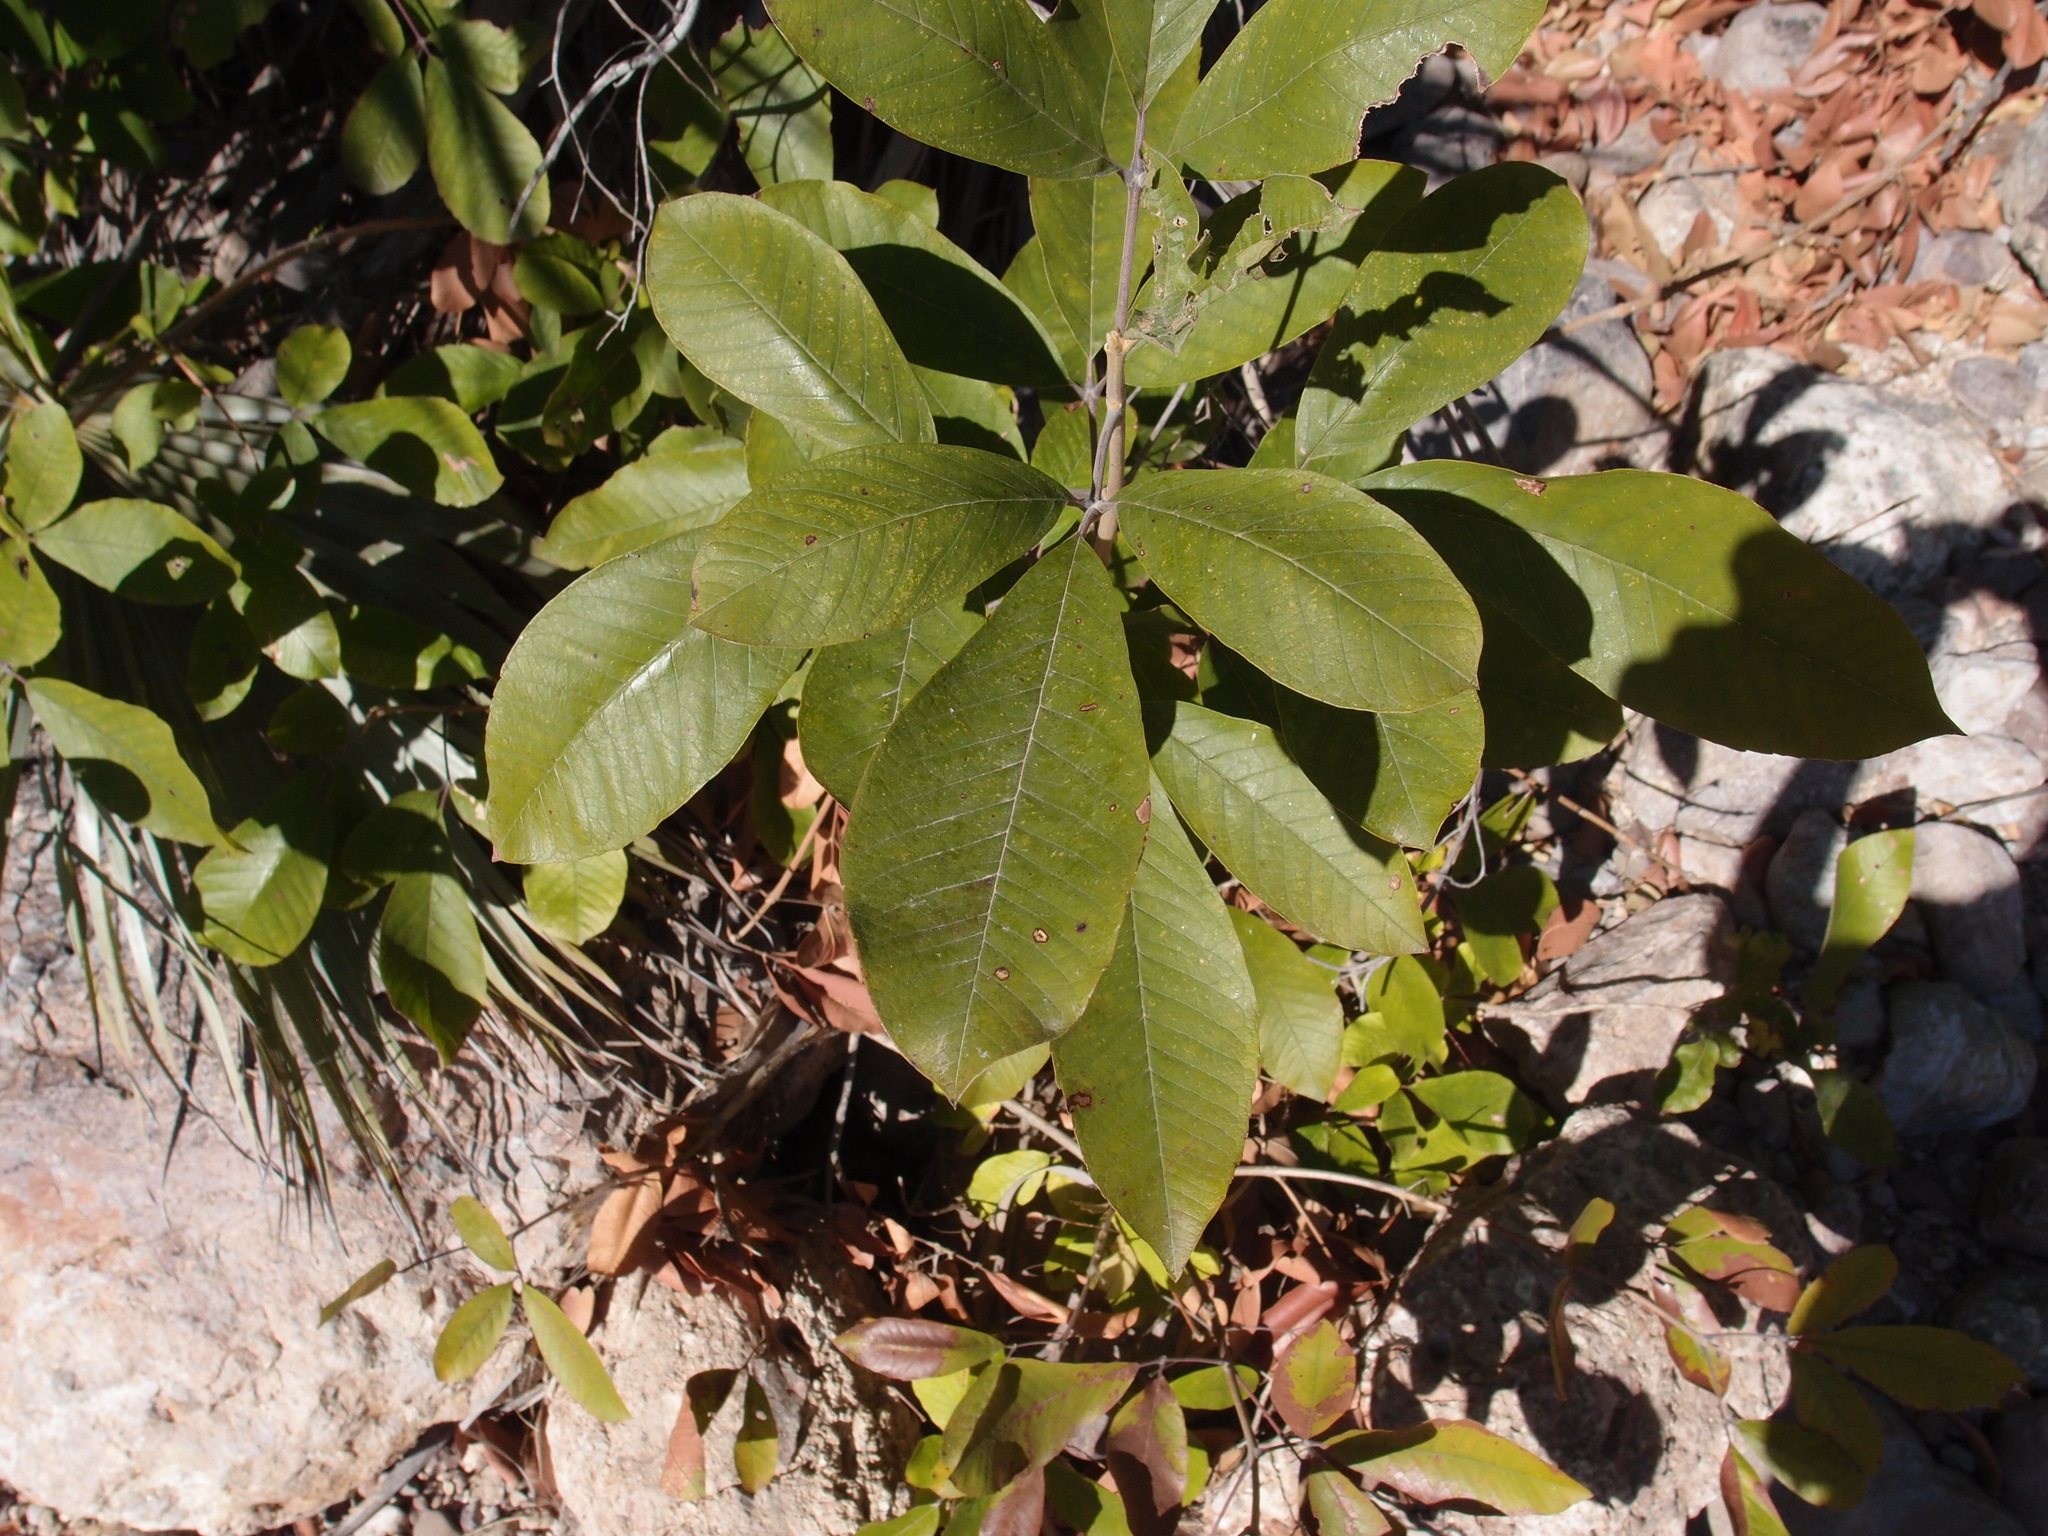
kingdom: Plantae
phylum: Tracheophyta
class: Magnoliopsida
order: Lamiales
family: Lamiaceae
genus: Vitex
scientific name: Vitex mollis
